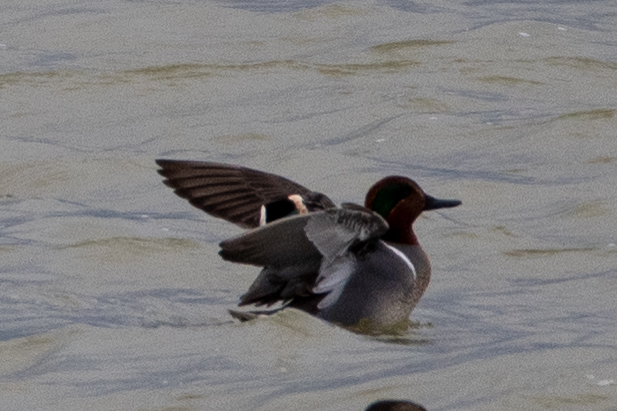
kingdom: Animalia
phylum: Chordata
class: Aves
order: Anseriformes
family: Anatidae
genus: Anas
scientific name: Anas crecca
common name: Eurasian teal
